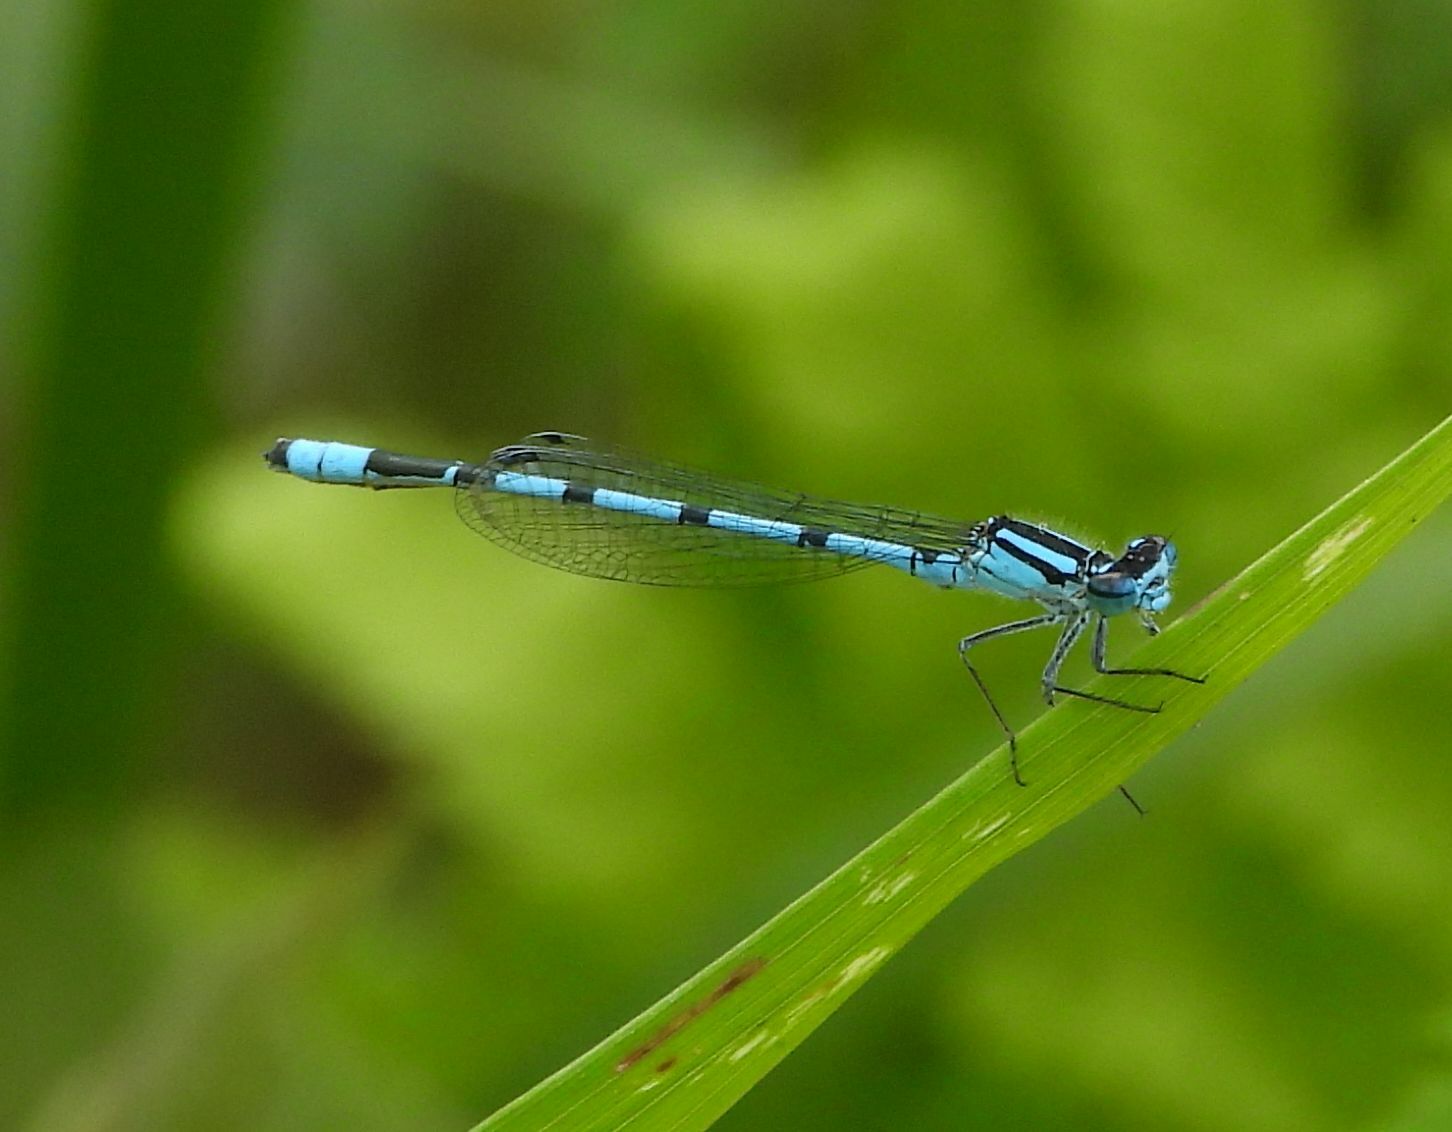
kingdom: Animalia
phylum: Arthropoda
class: Insecta
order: Odonata
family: Coenagrionidae
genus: Enallagma
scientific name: Enallagma ebrium
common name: Marsh bluet
